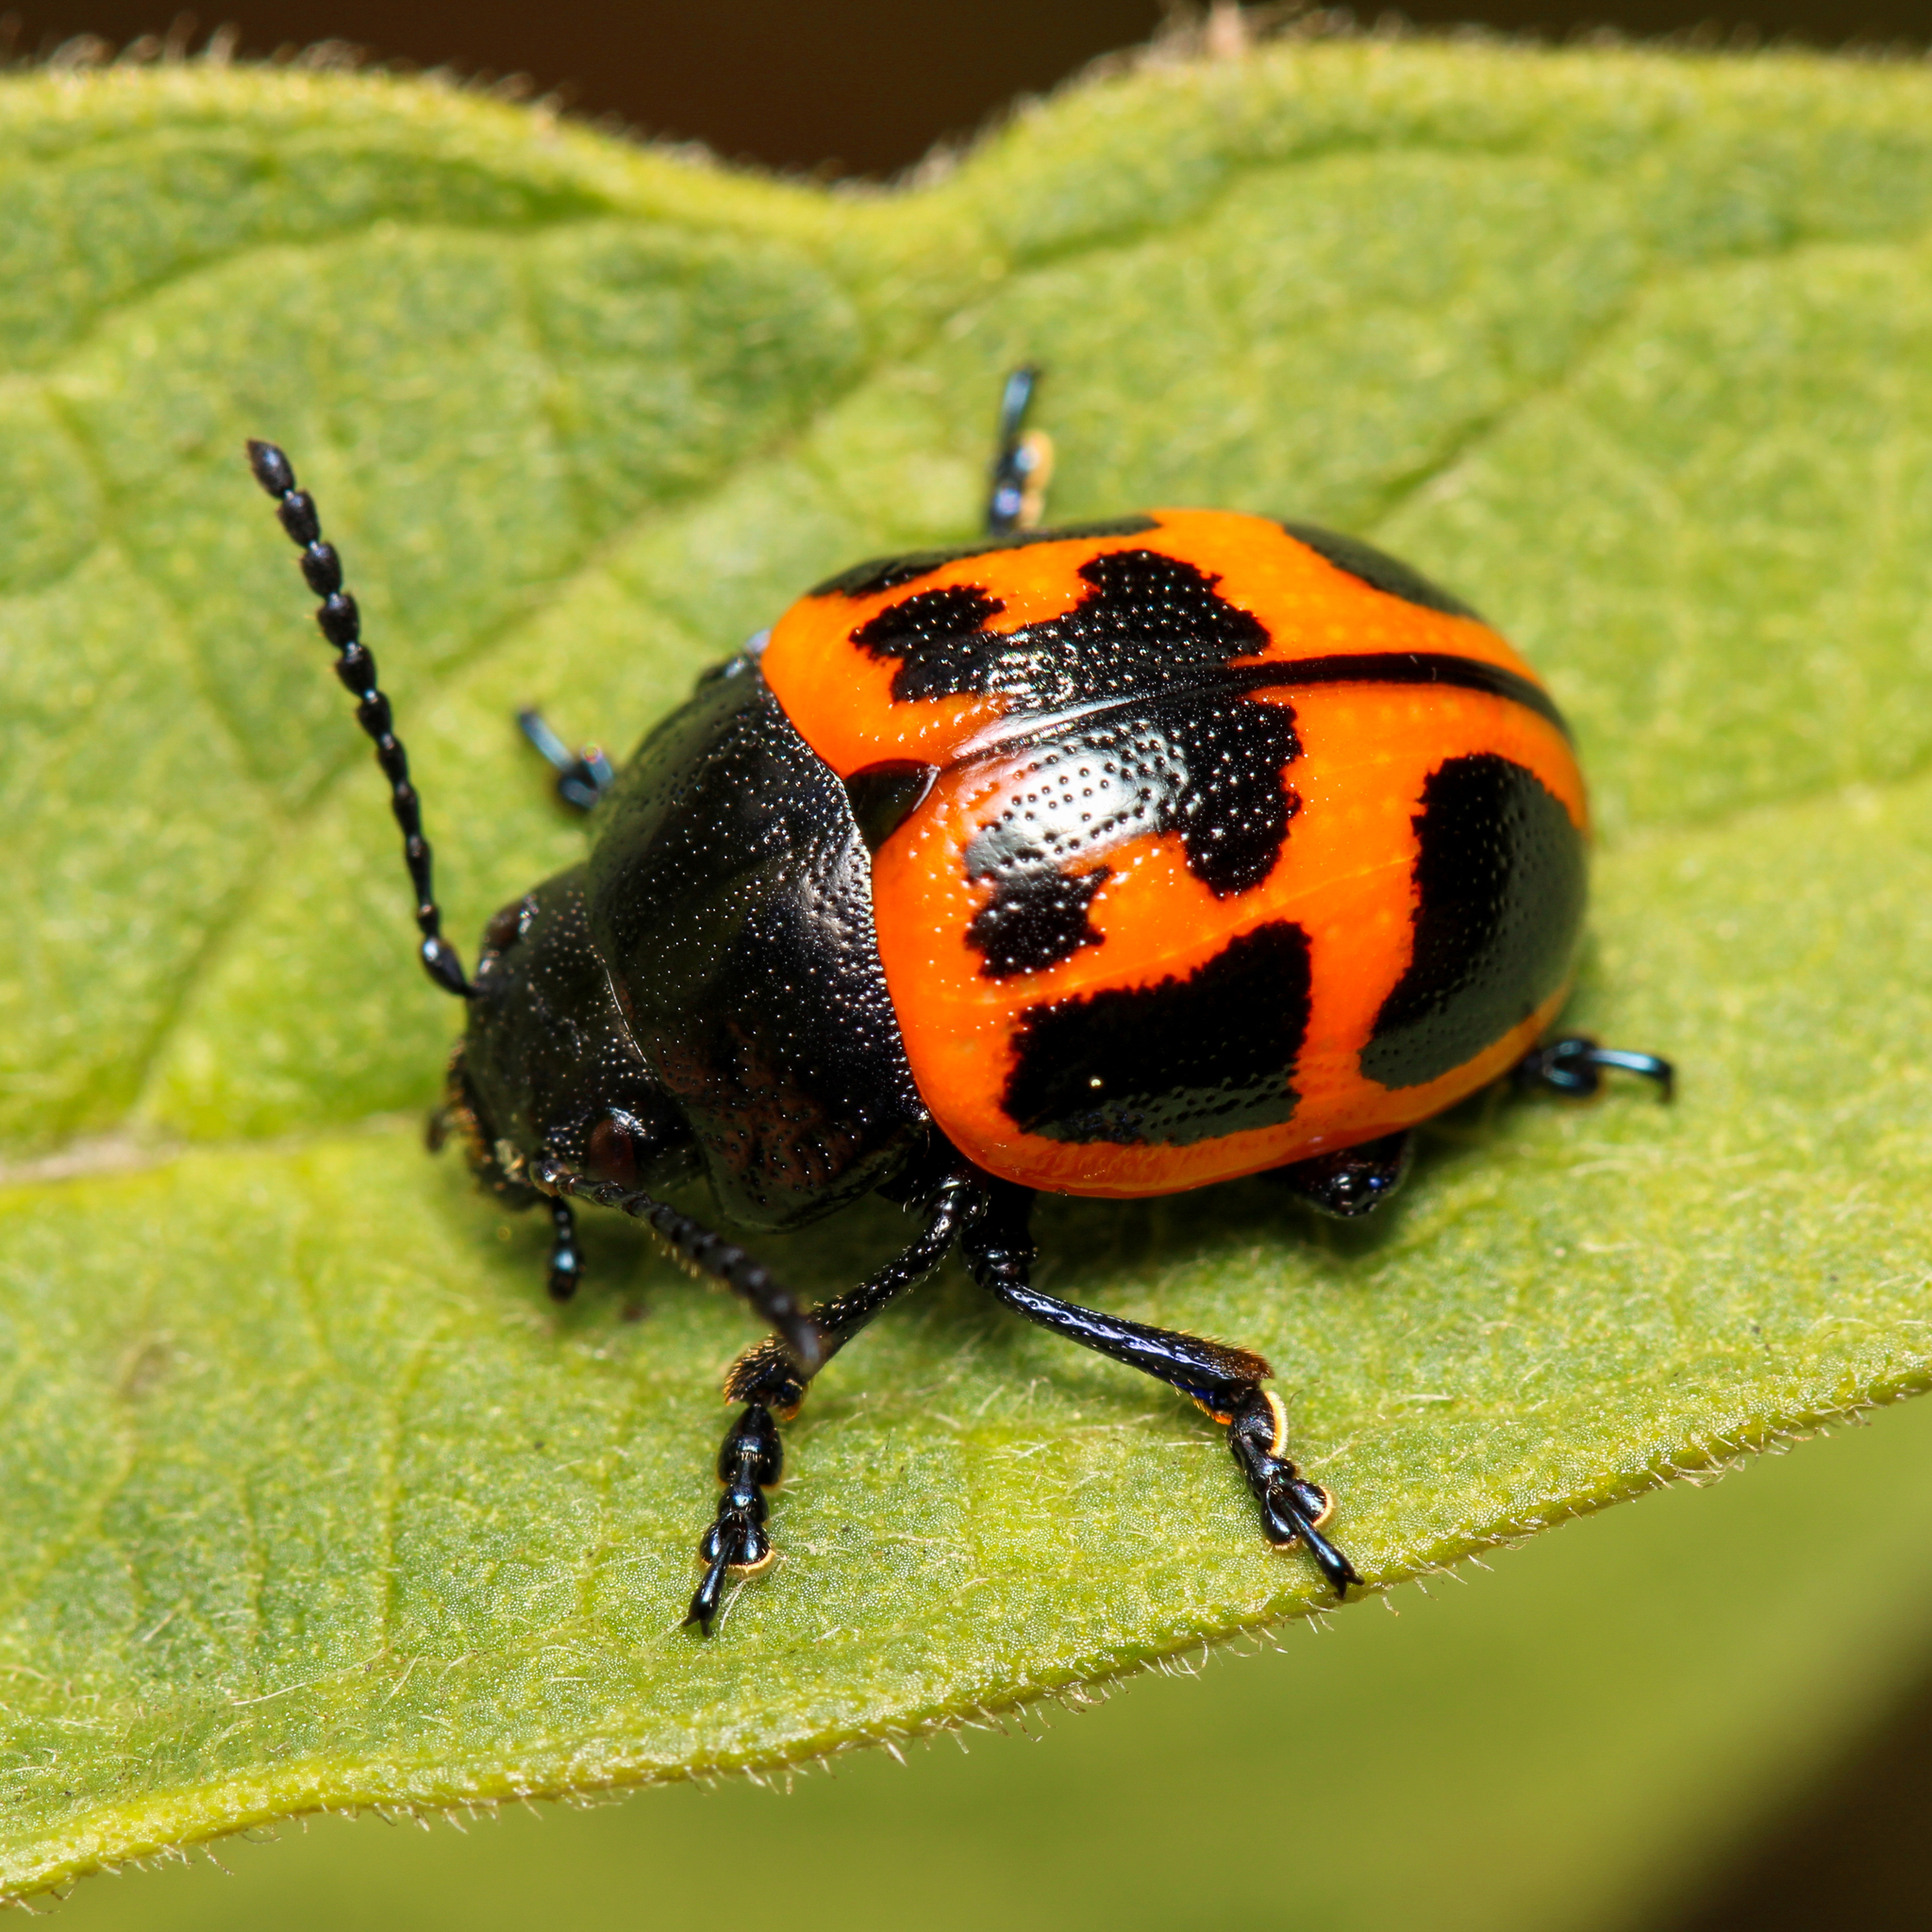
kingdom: Animalia
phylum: Arthropoda
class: Insecta
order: Coleoptera
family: Chrysomelidae
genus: Labidomera
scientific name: Labidomera clivicollis
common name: Swamp milkweed leaf beetle
